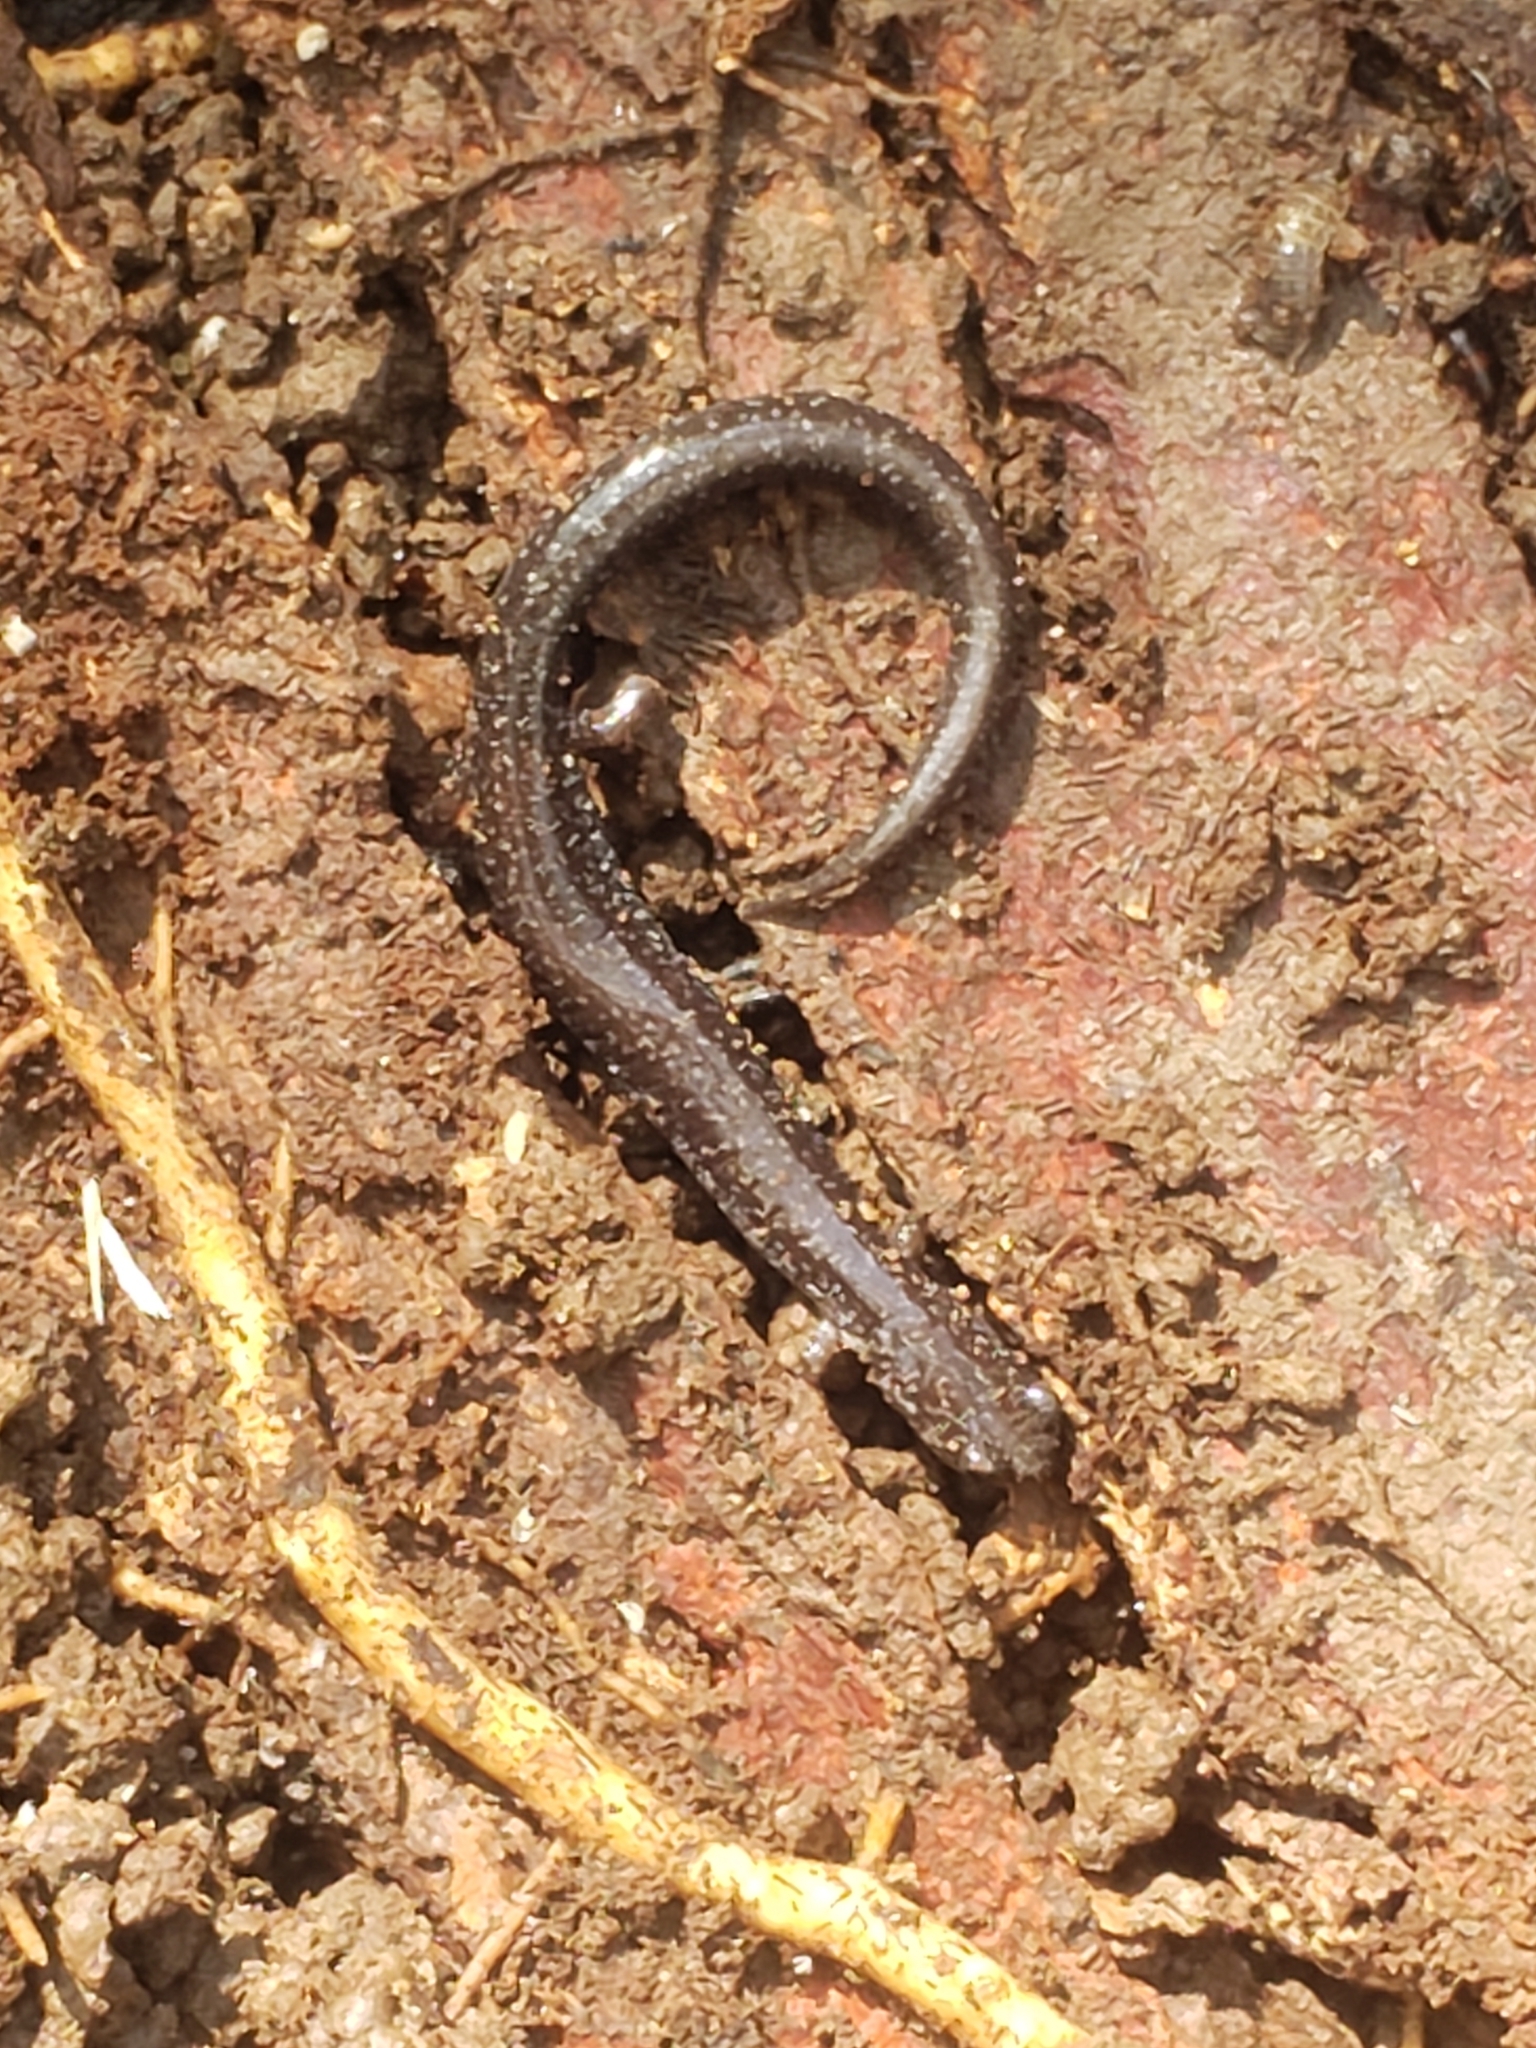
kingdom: Animalia
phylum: Chordata
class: Amphibia
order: Caudata
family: Plethodontidae
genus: Plethodon
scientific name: Plethodon cinereus
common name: Redback salamander
